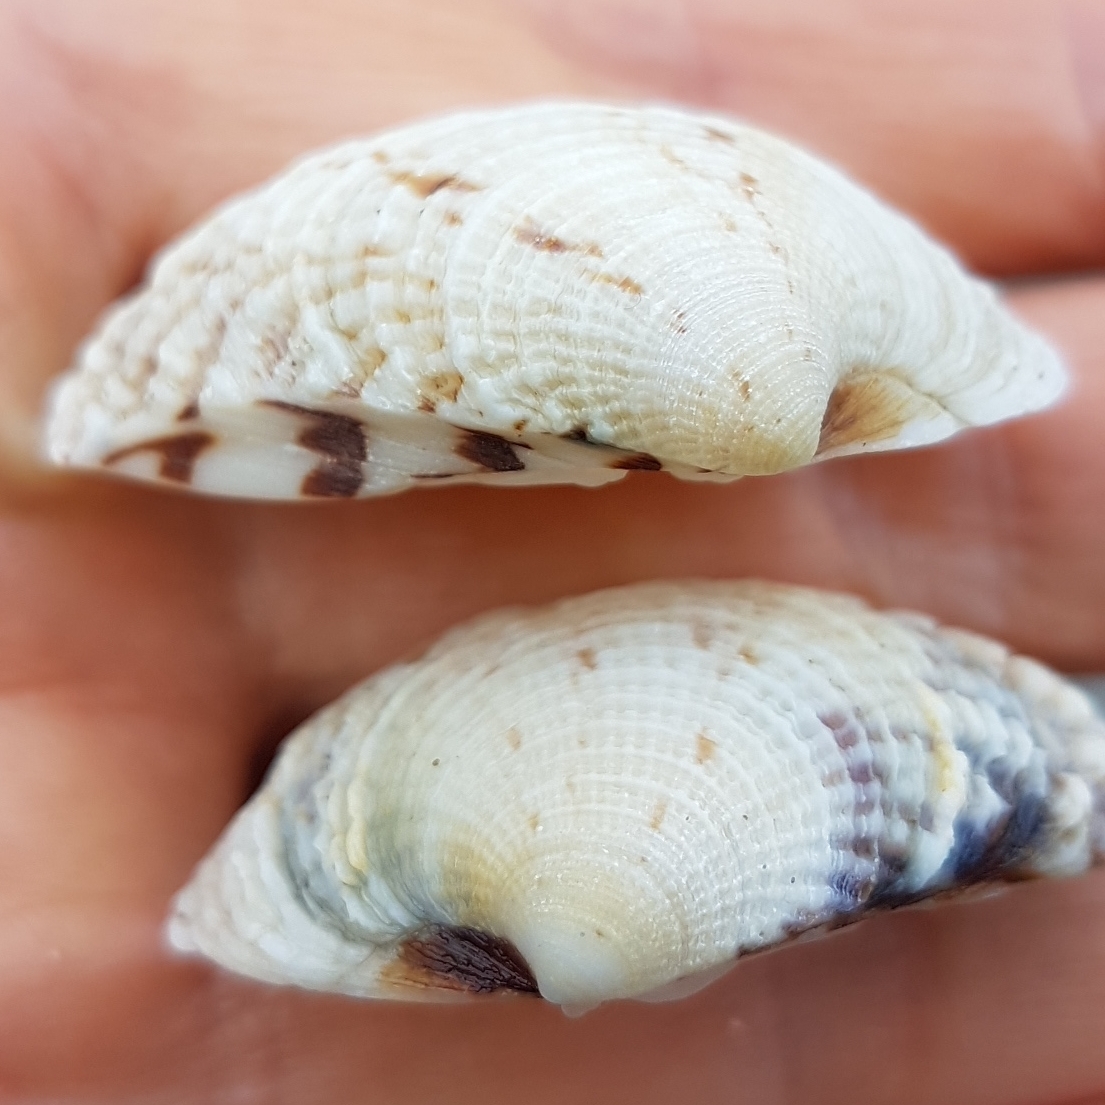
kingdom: Animalia
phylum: Mollusca
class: Bivalvia
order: Venerida
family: Veneridae
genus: Venus
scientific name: Venus verrucosa
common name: Warty venus
